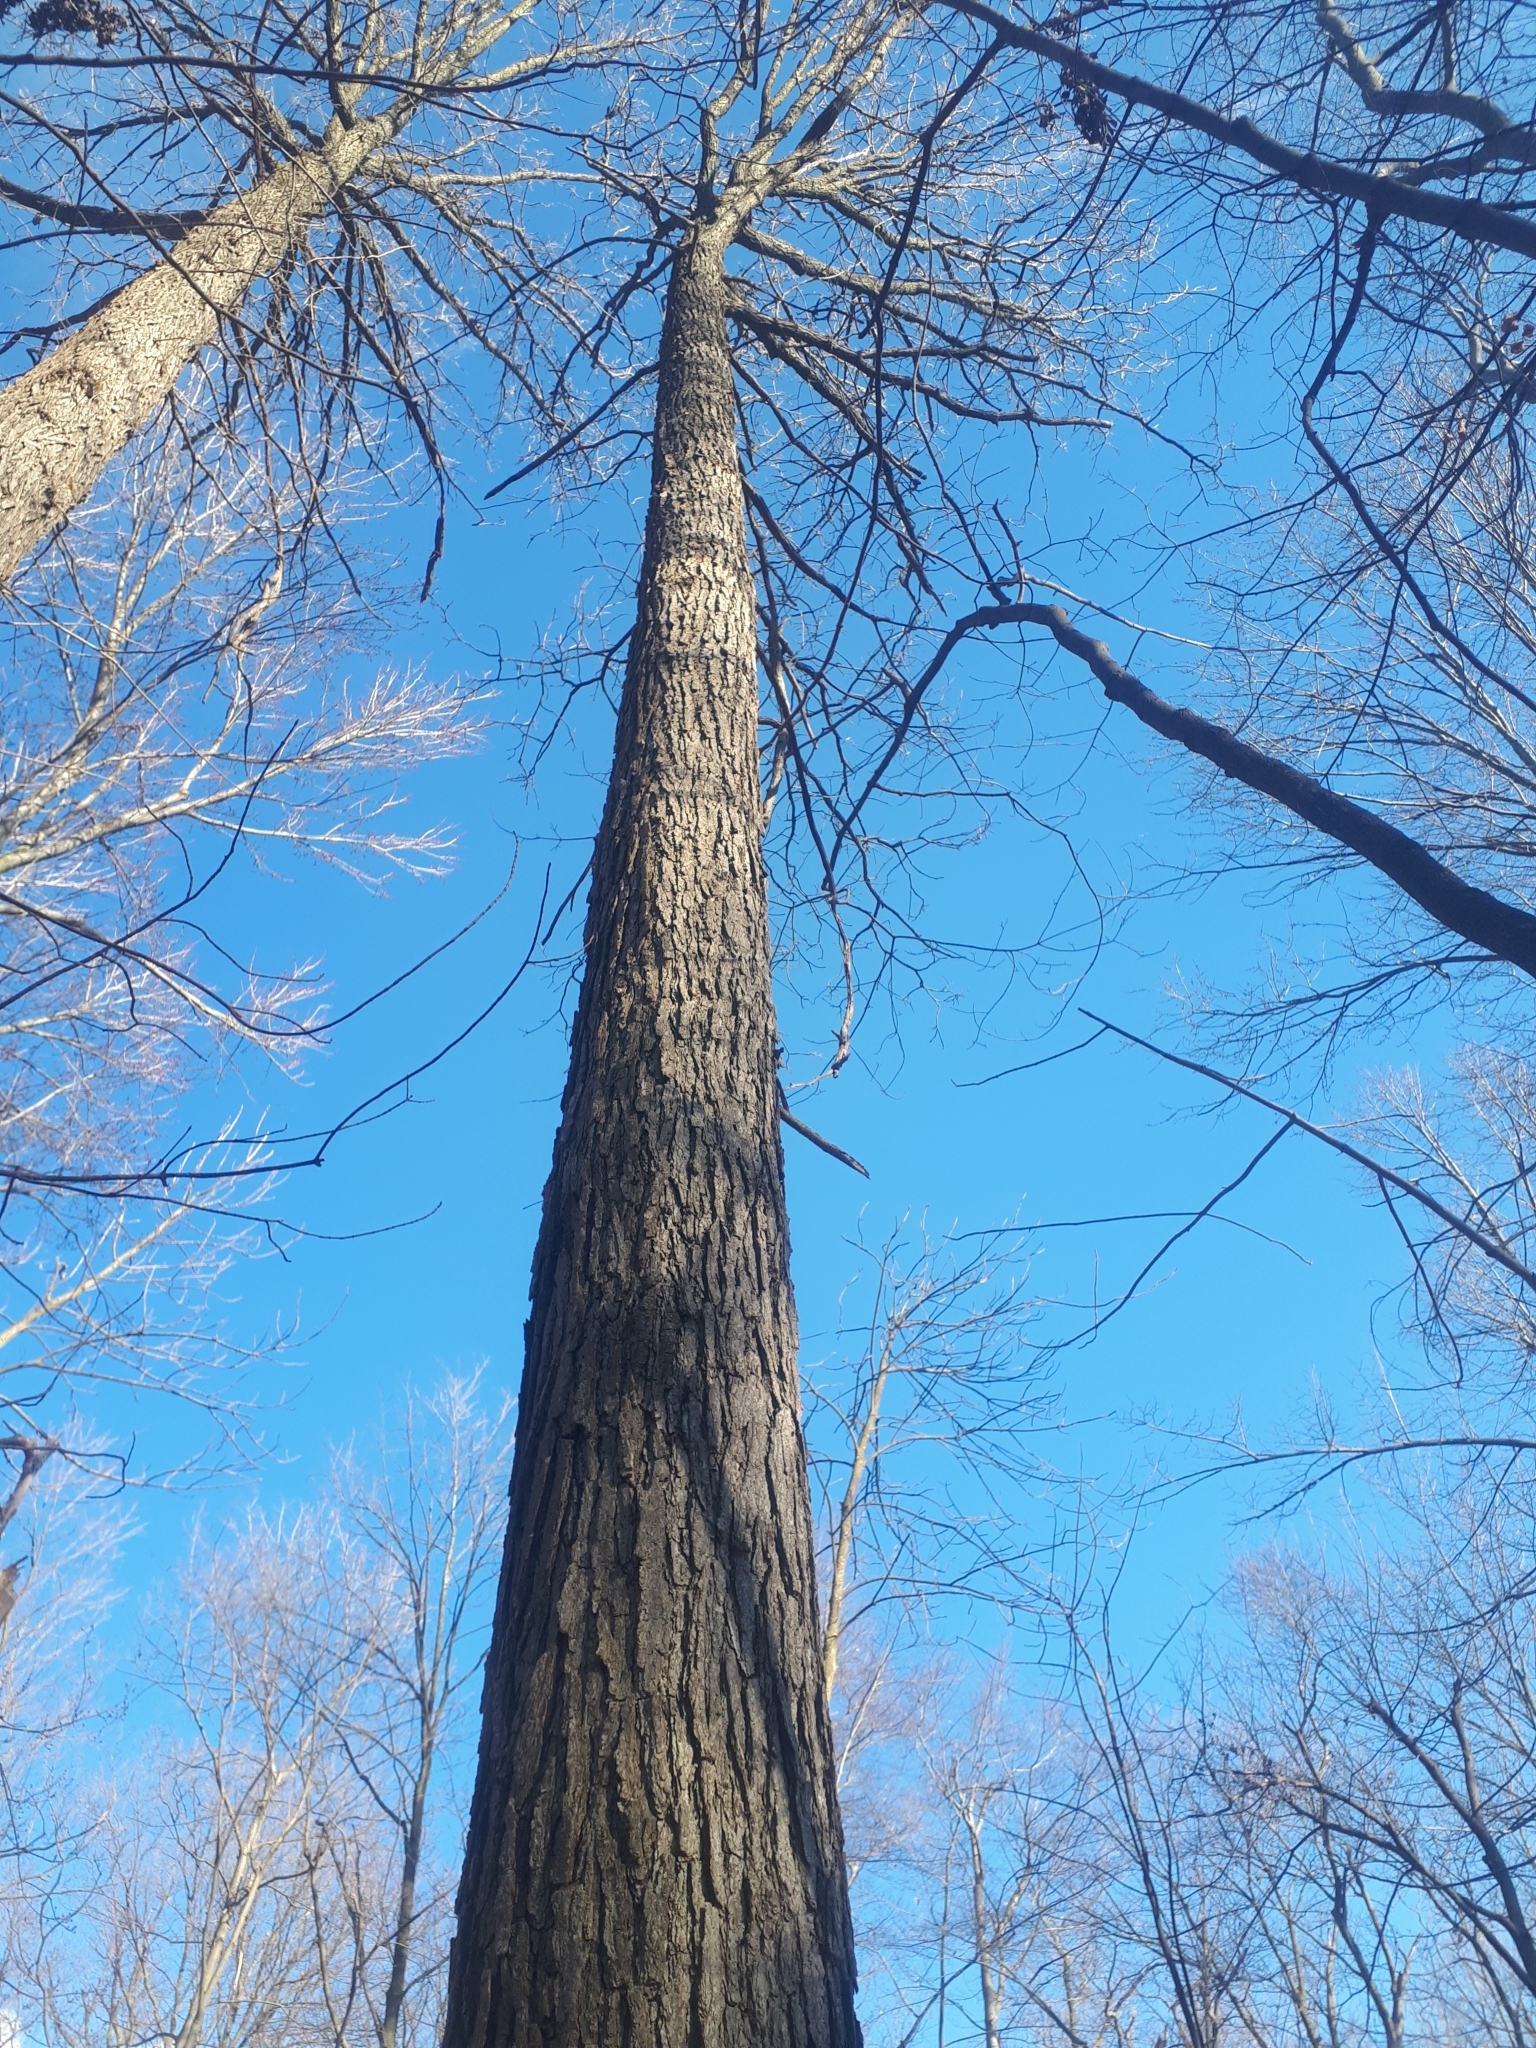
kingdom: Plantae
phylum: Tracheophyta
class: Magnoliopsida
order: Fagales
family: Fagaceae
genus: Quercus
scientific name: Quercus macrocarpa
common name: Bur oak
